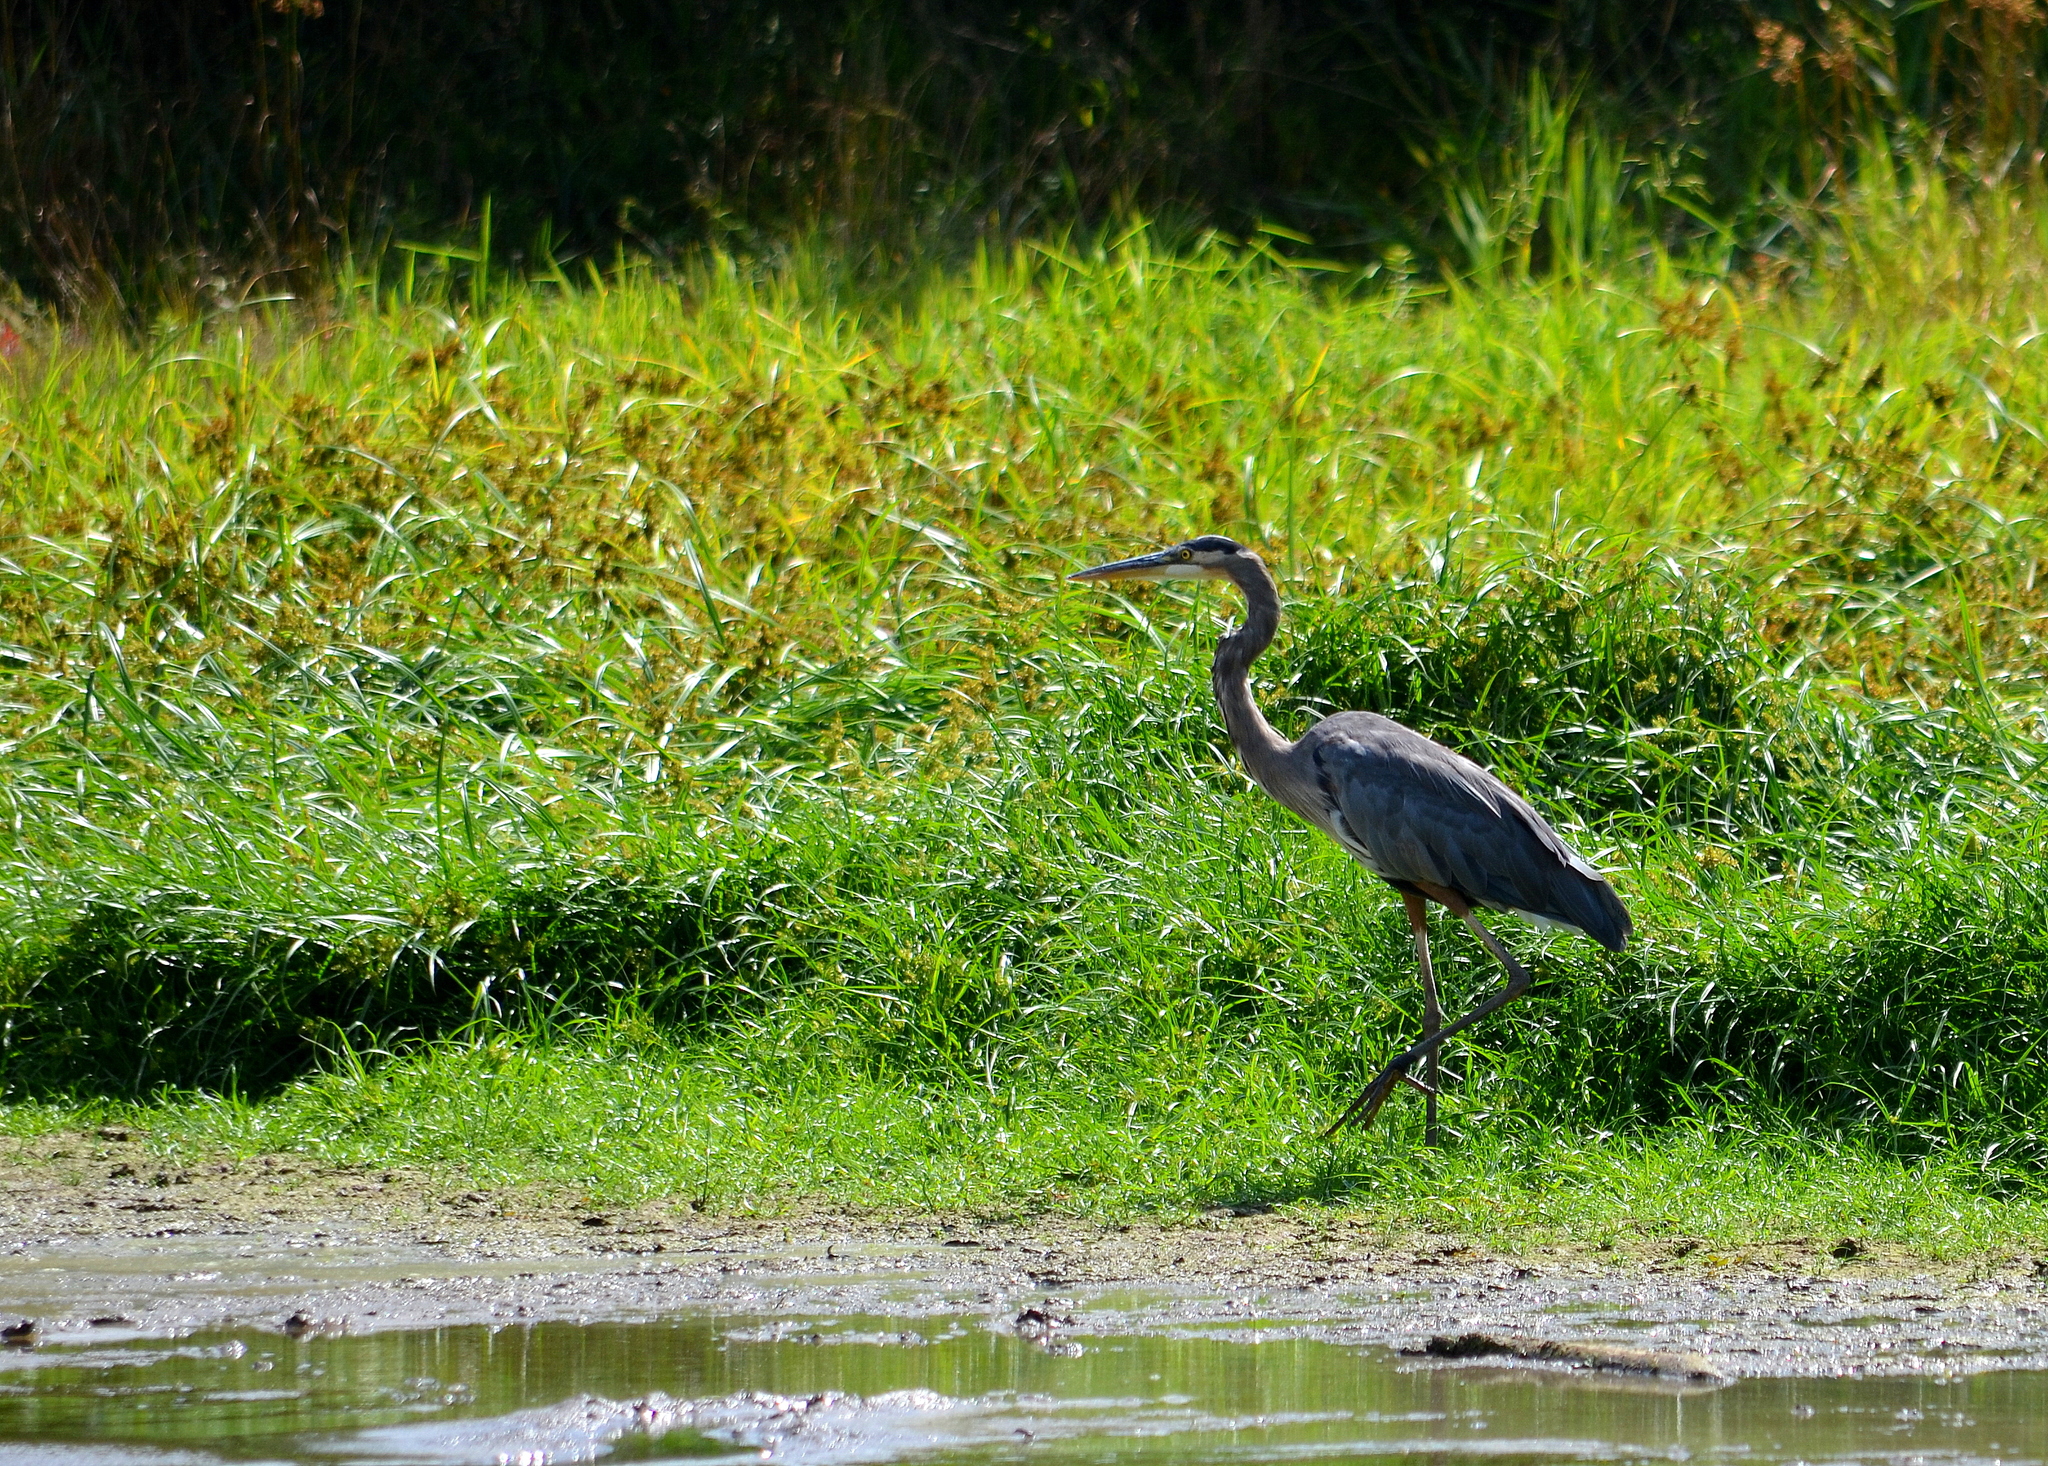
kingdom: Animalia
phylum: Chordata
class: Aves
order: Pelecaniformes
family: Ardeidae
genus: Ardea
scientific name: Ardea herodias
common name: Great blue heron
